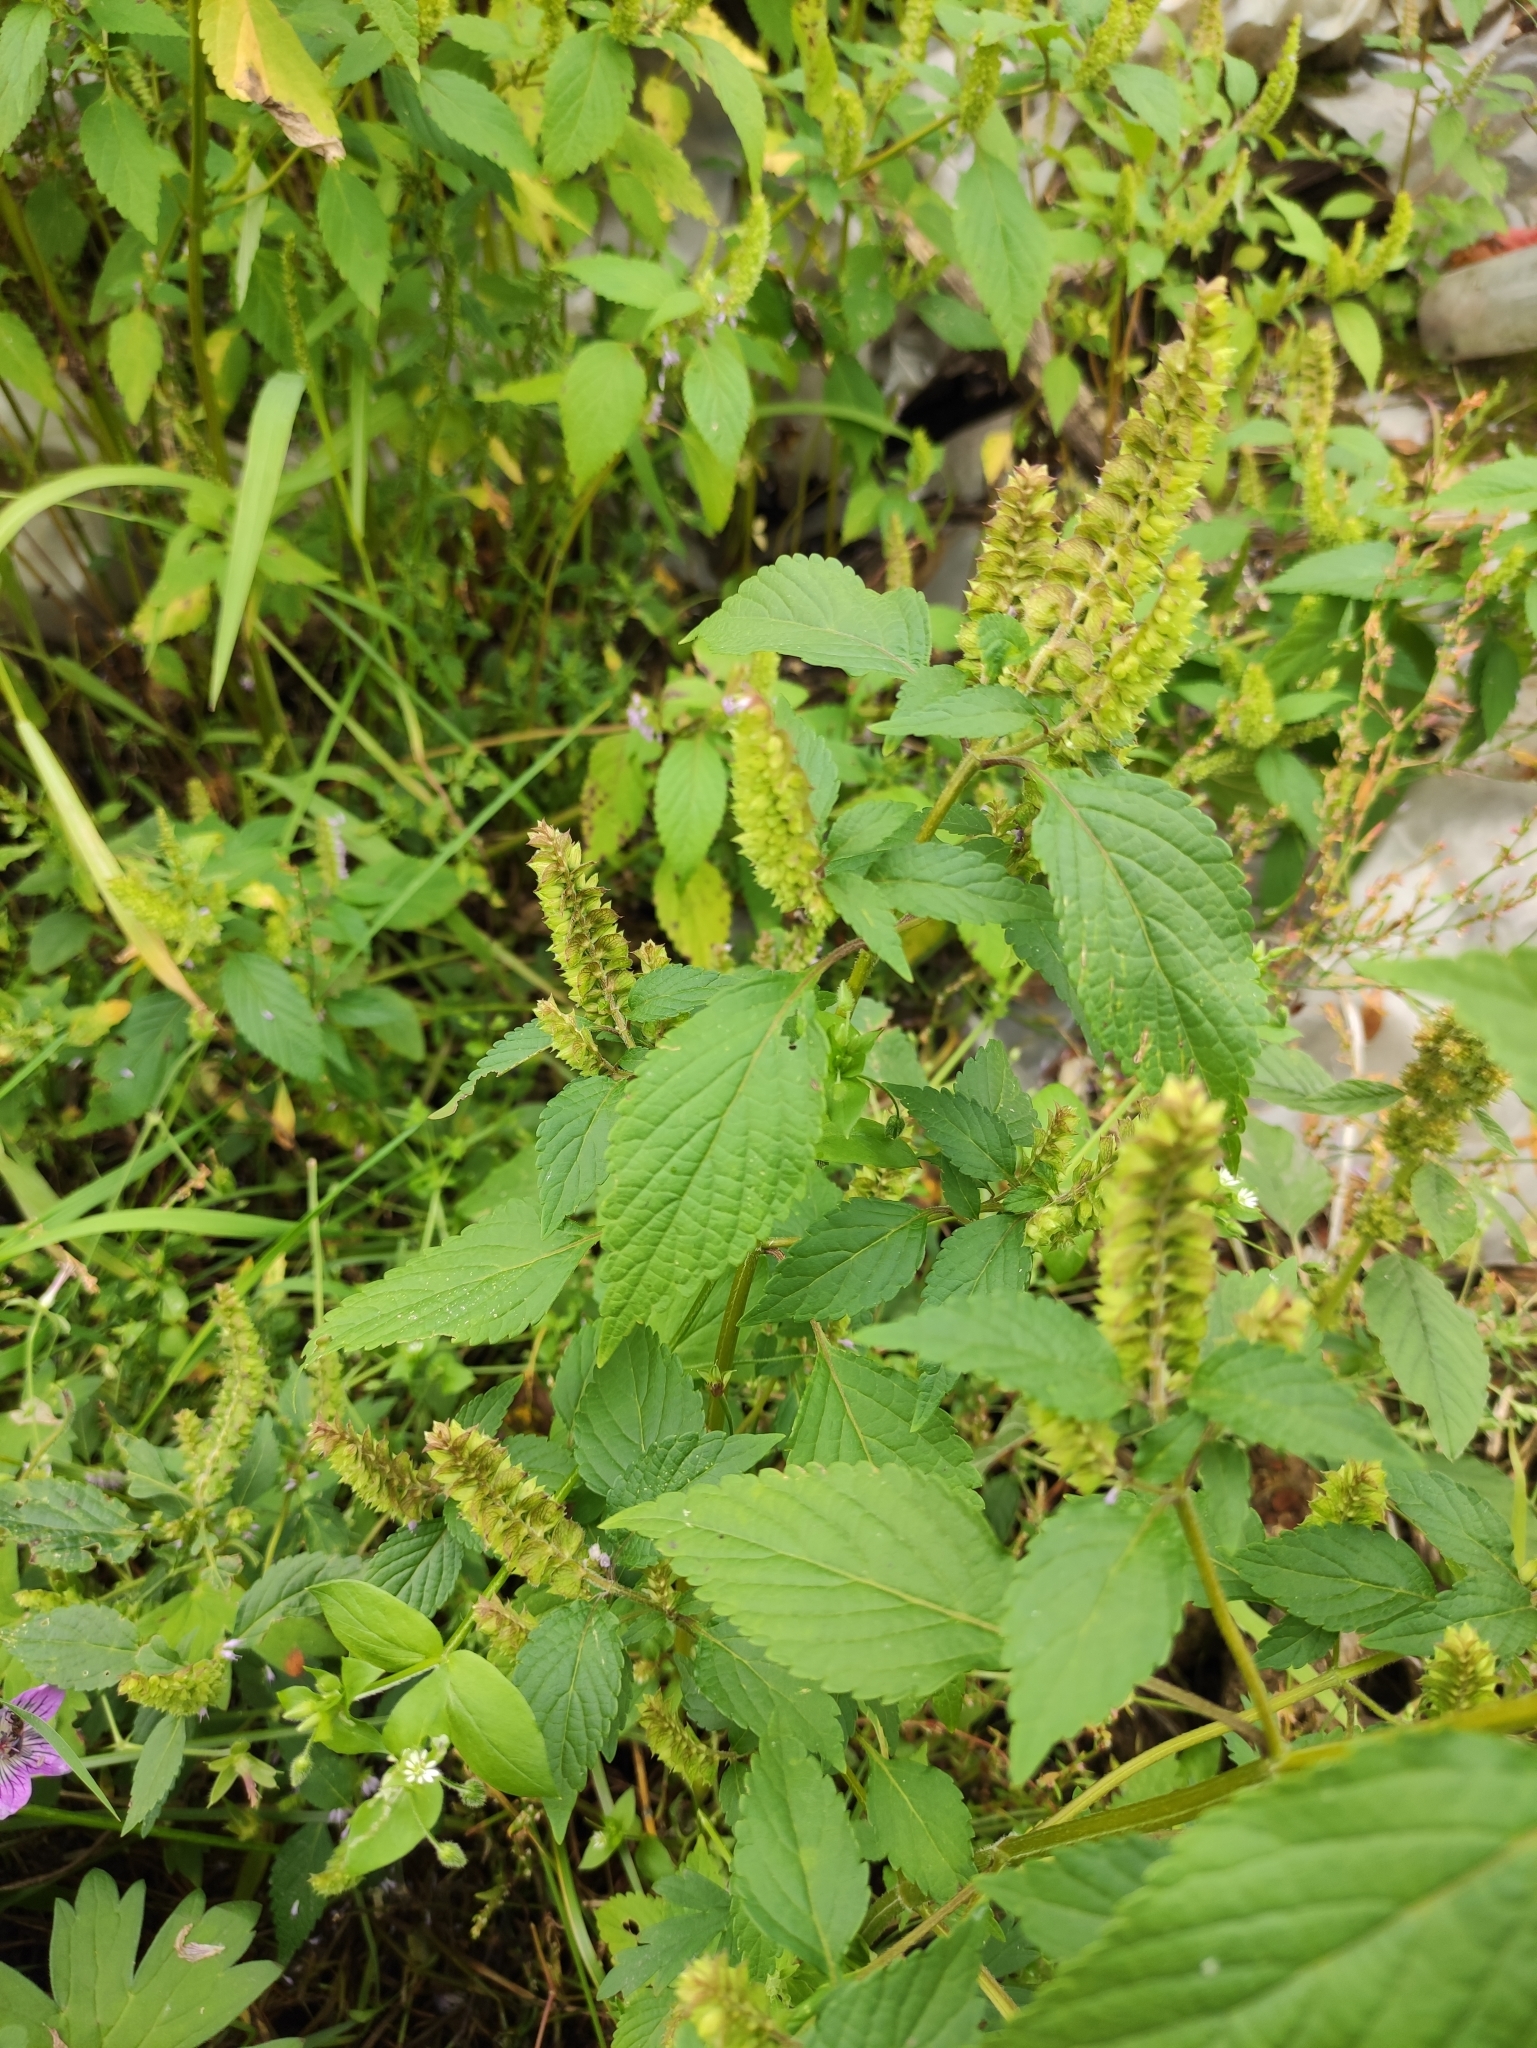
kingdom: Plantae
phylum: Tracheophyta
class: Magnoliopsida
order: Lamiales
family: Lamiaceae
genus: Elsholtzia
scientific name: Elsholtzia ciliata
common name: Ciliate elsholtzia
